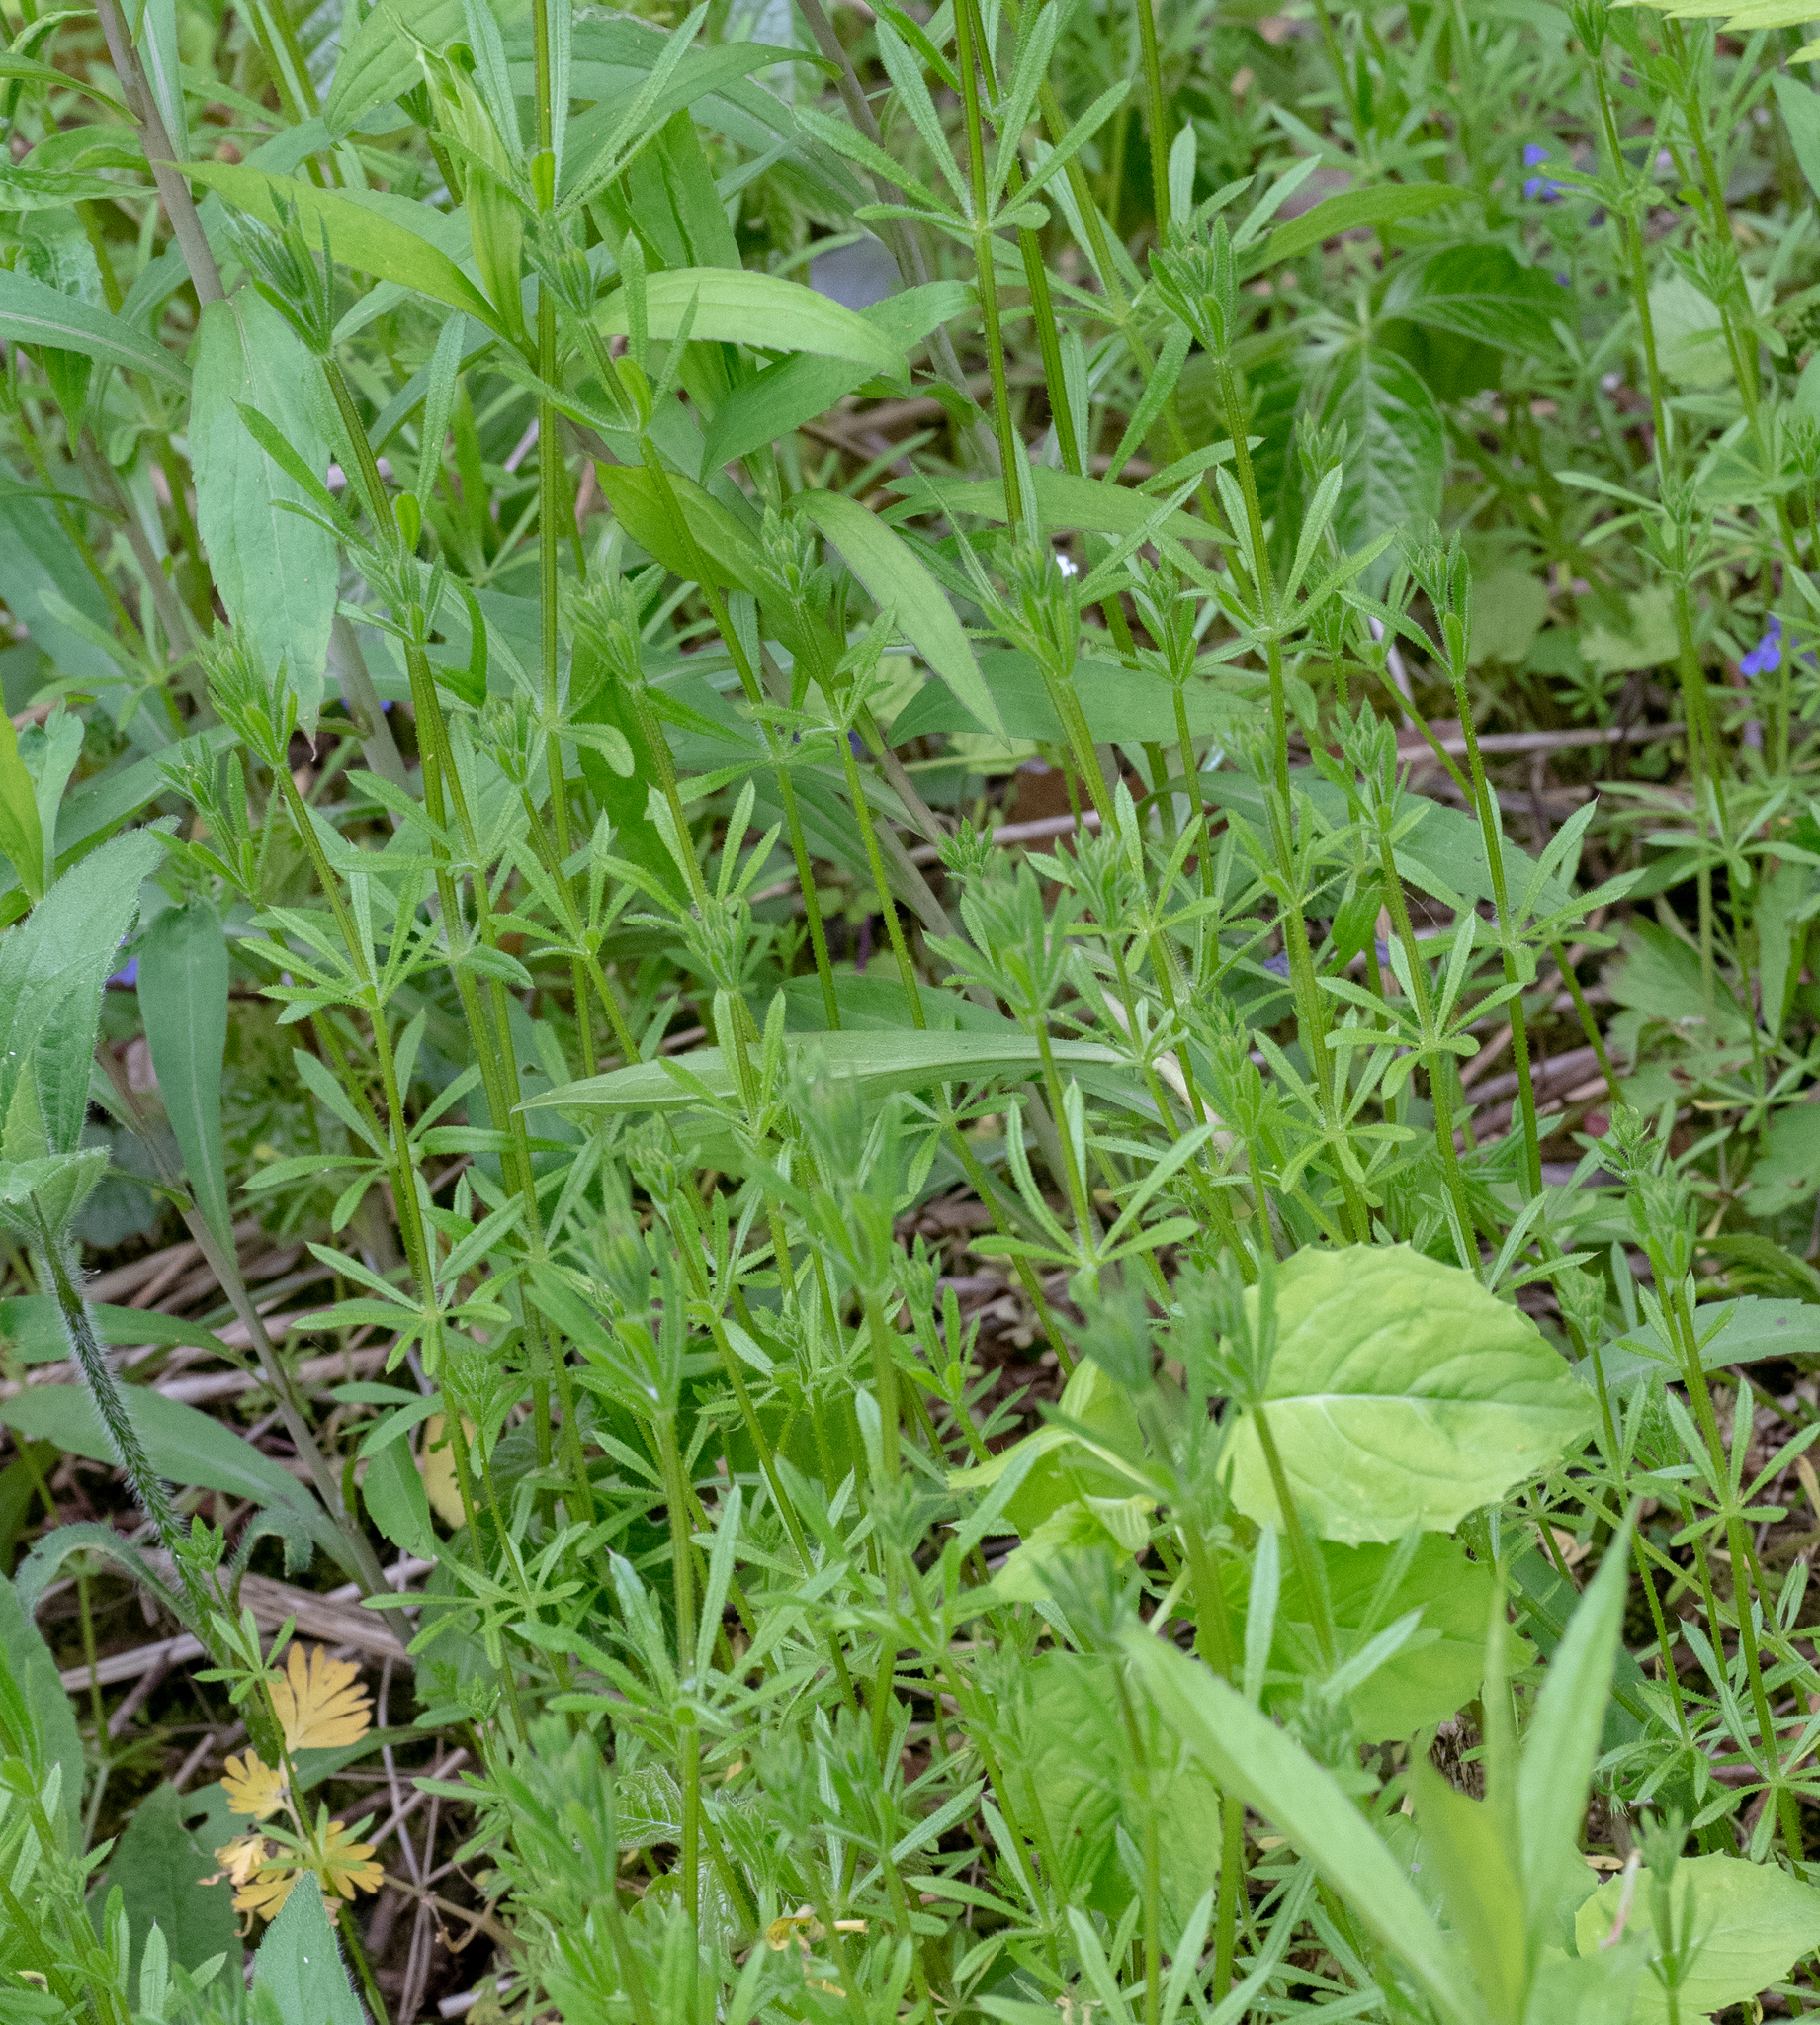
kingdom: Plantae
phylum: Tracheophyta
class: Magnoliopsida
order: Gentianales
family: Rubiaceae
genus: Galium
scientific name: Galium aparine
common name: Cleavers
